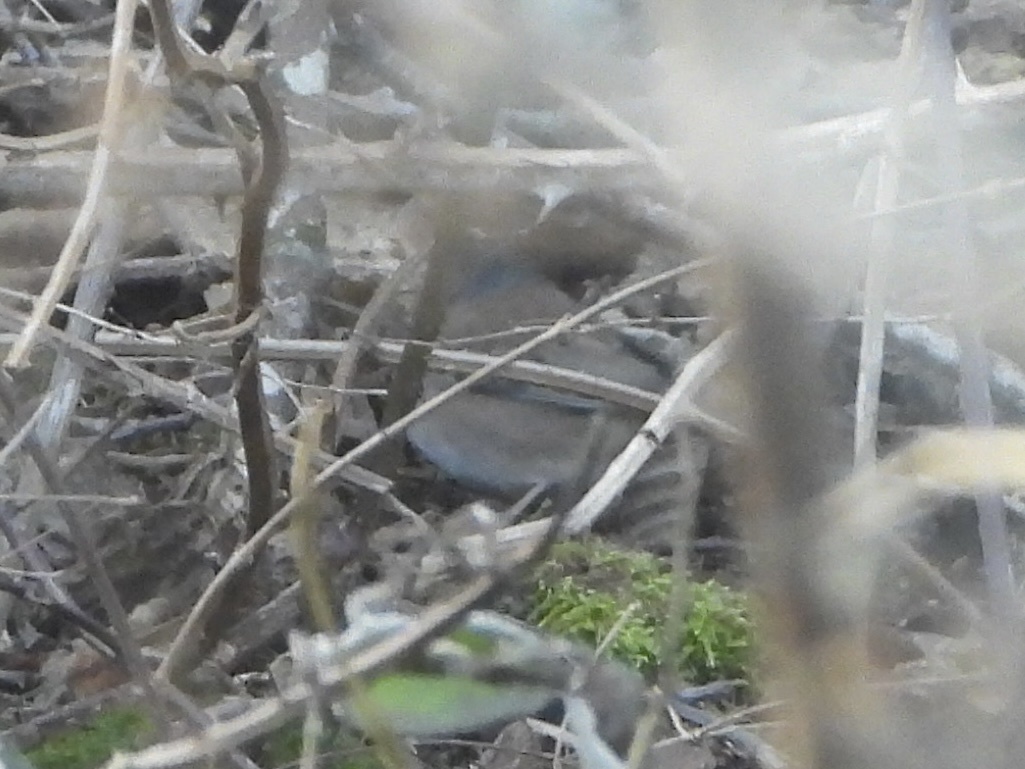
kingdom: Animalia
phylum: Chordata
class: Aves
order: Passeriformes
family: Passerellidae
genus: Junco
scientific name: Junco hyemalis
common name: Dark-eyed junco
